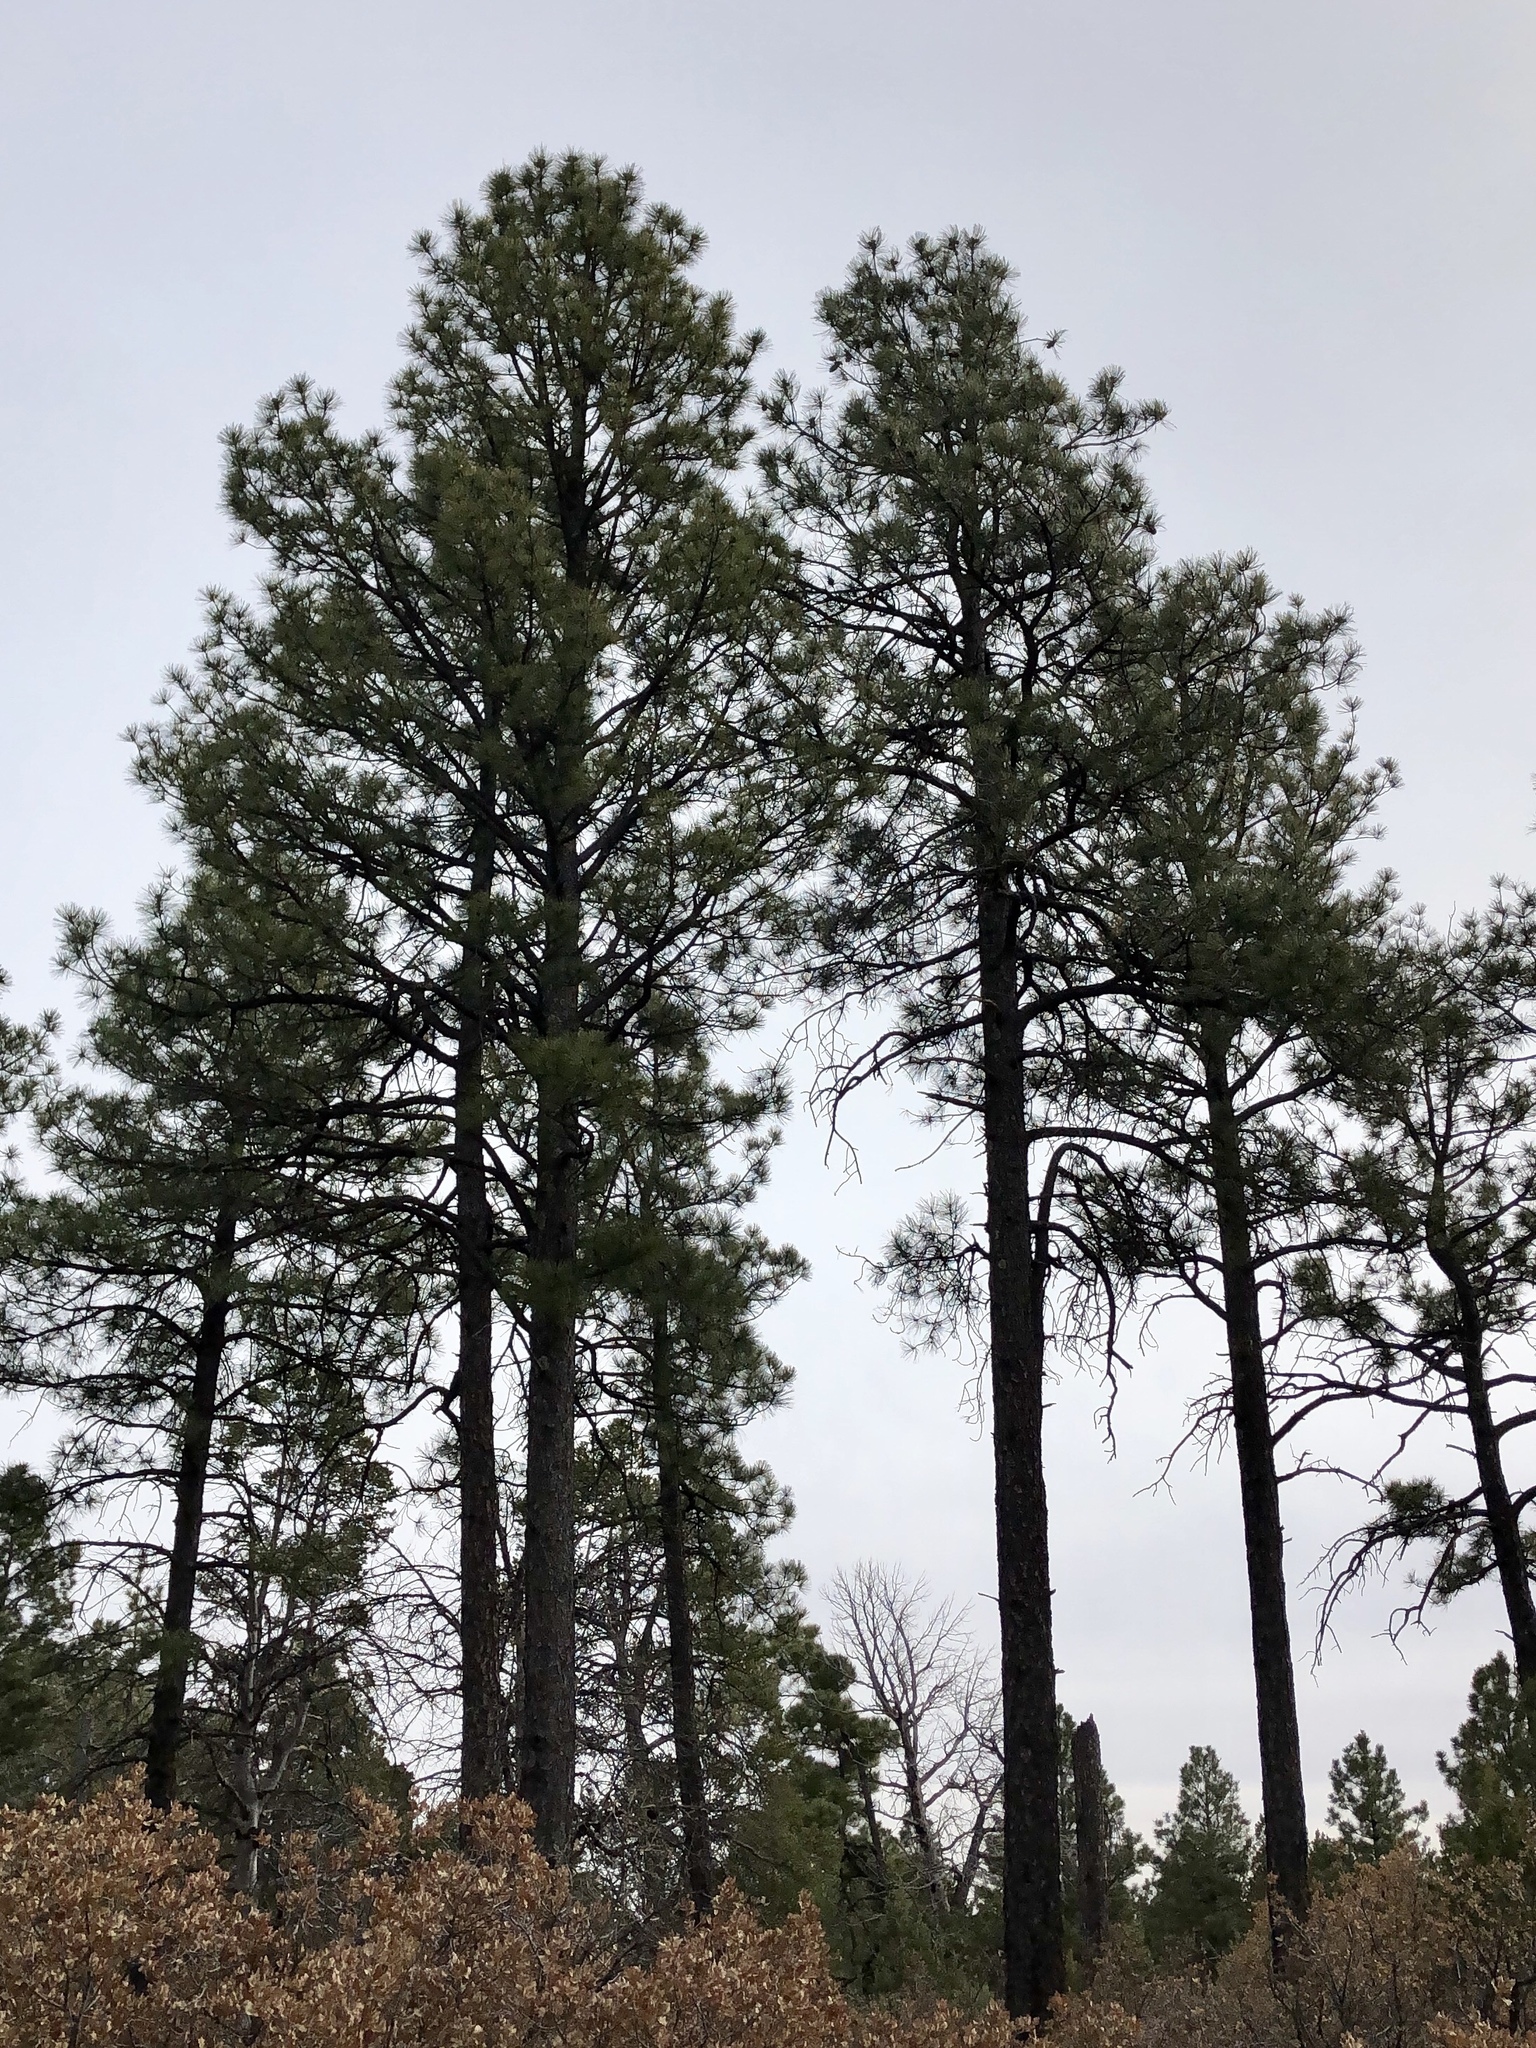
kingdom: Plantae
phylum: Tracheophyta
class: Pinopsida
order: Pinales
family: Pinaceae
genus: Pinus
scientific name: Pinus ponderosa
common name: Western yellow-pine
